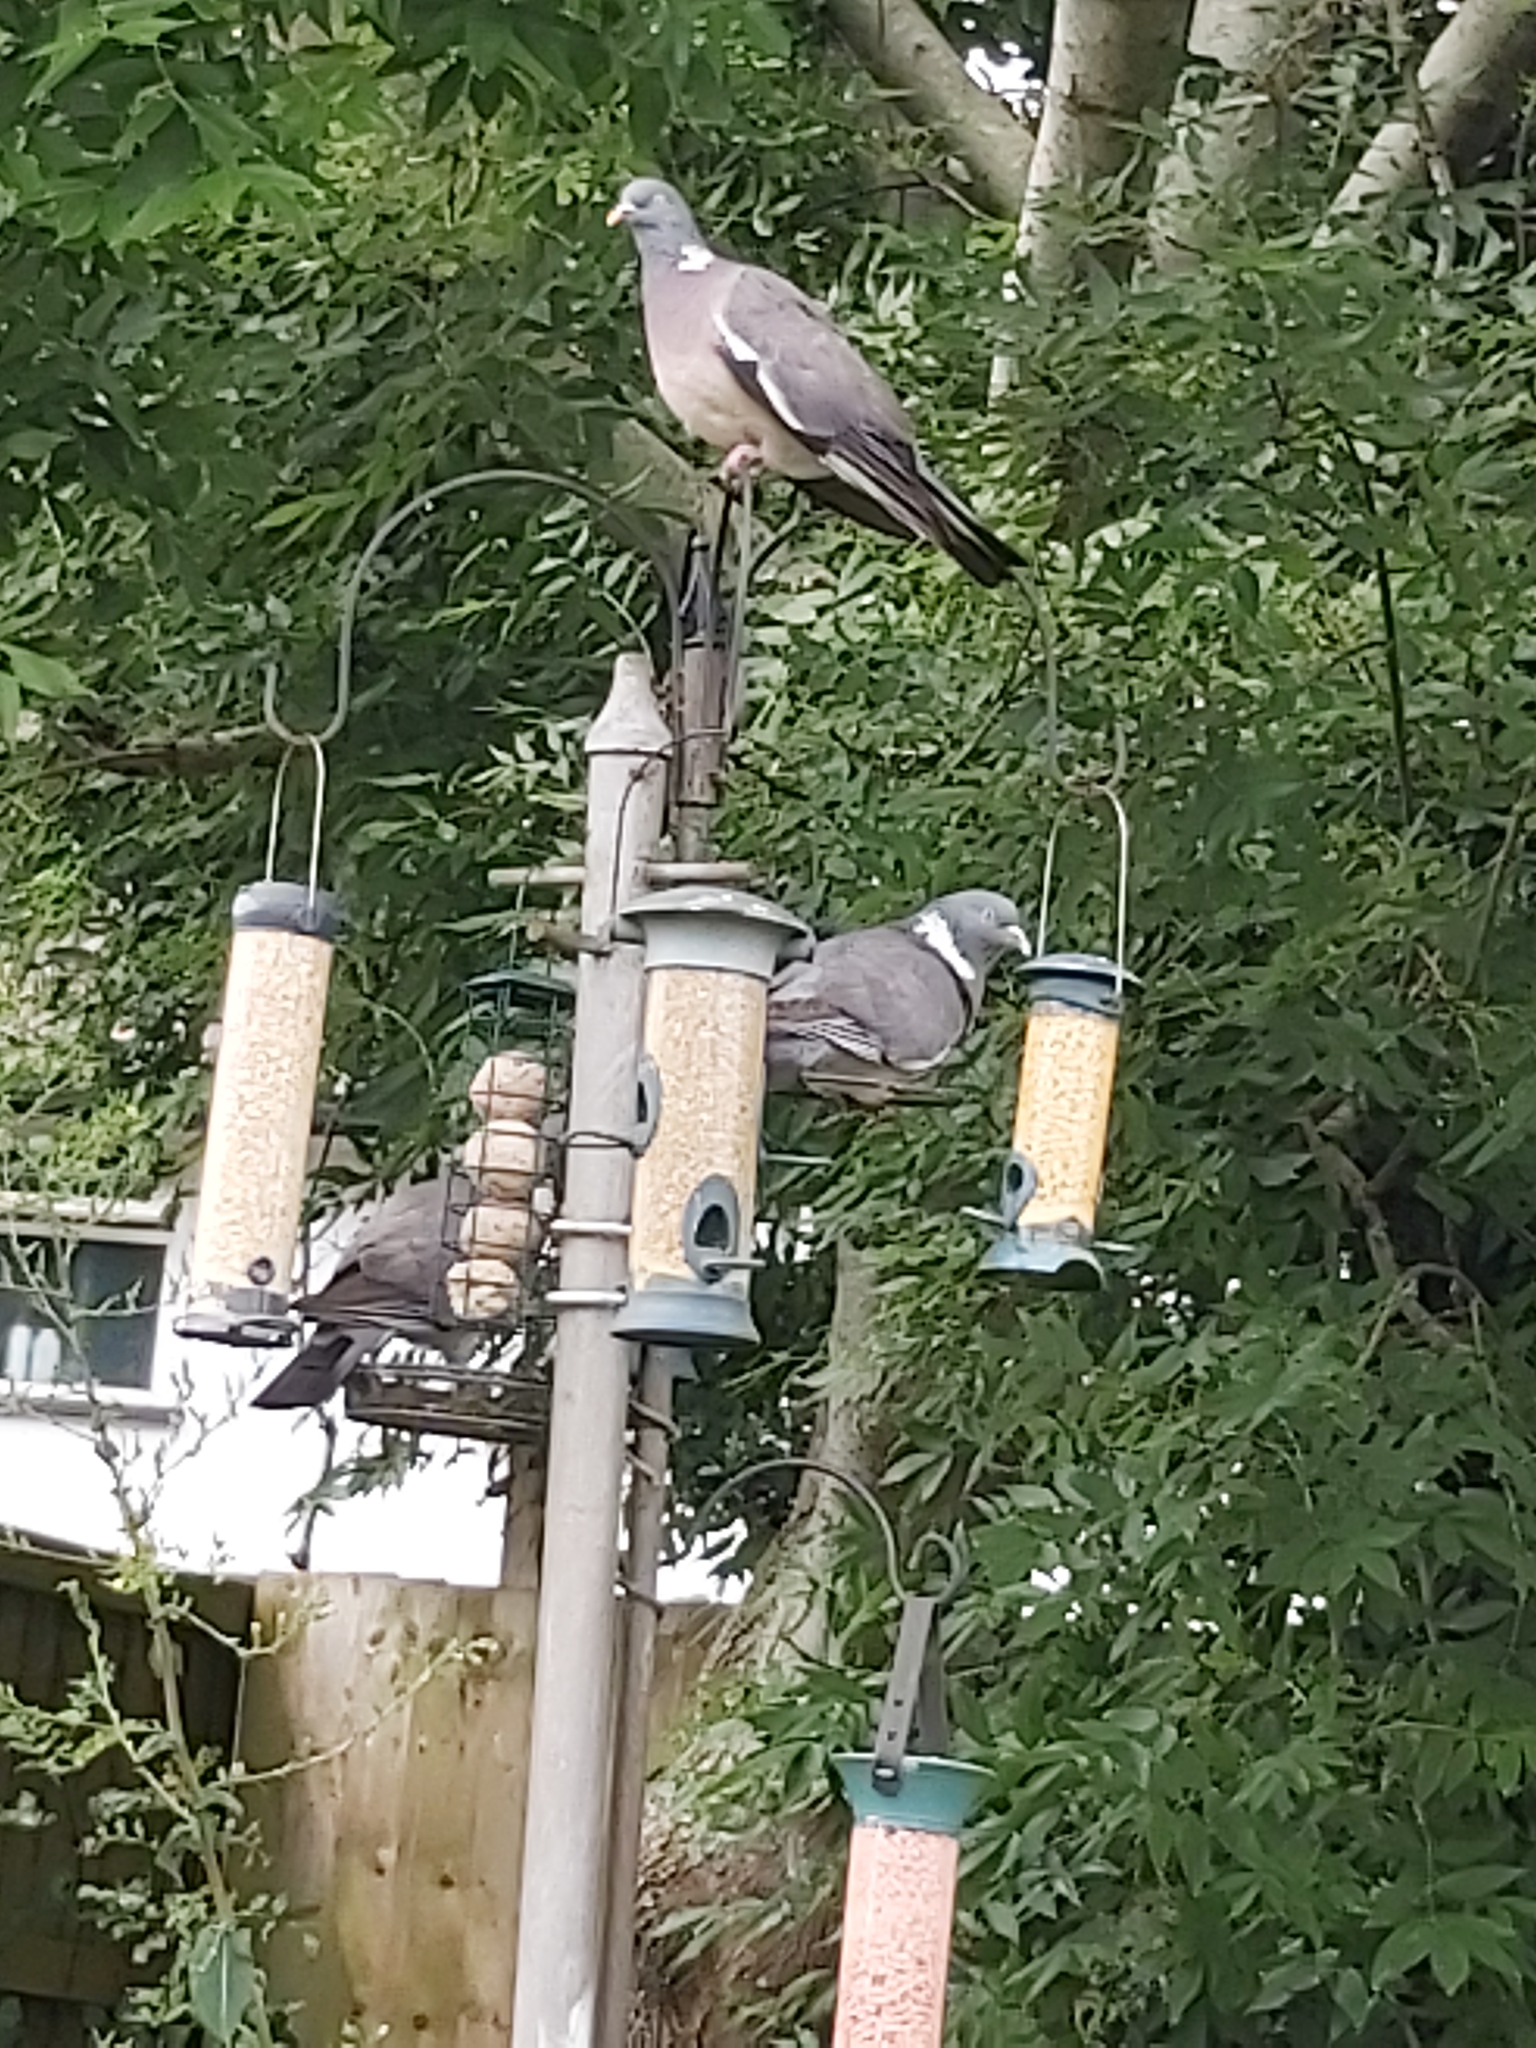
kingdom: Animalia
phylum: Chordata
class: Aves
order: Columbiformes
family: Columbidae
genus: Columba
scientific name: Columba palumbus
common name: Common wood pigeon
